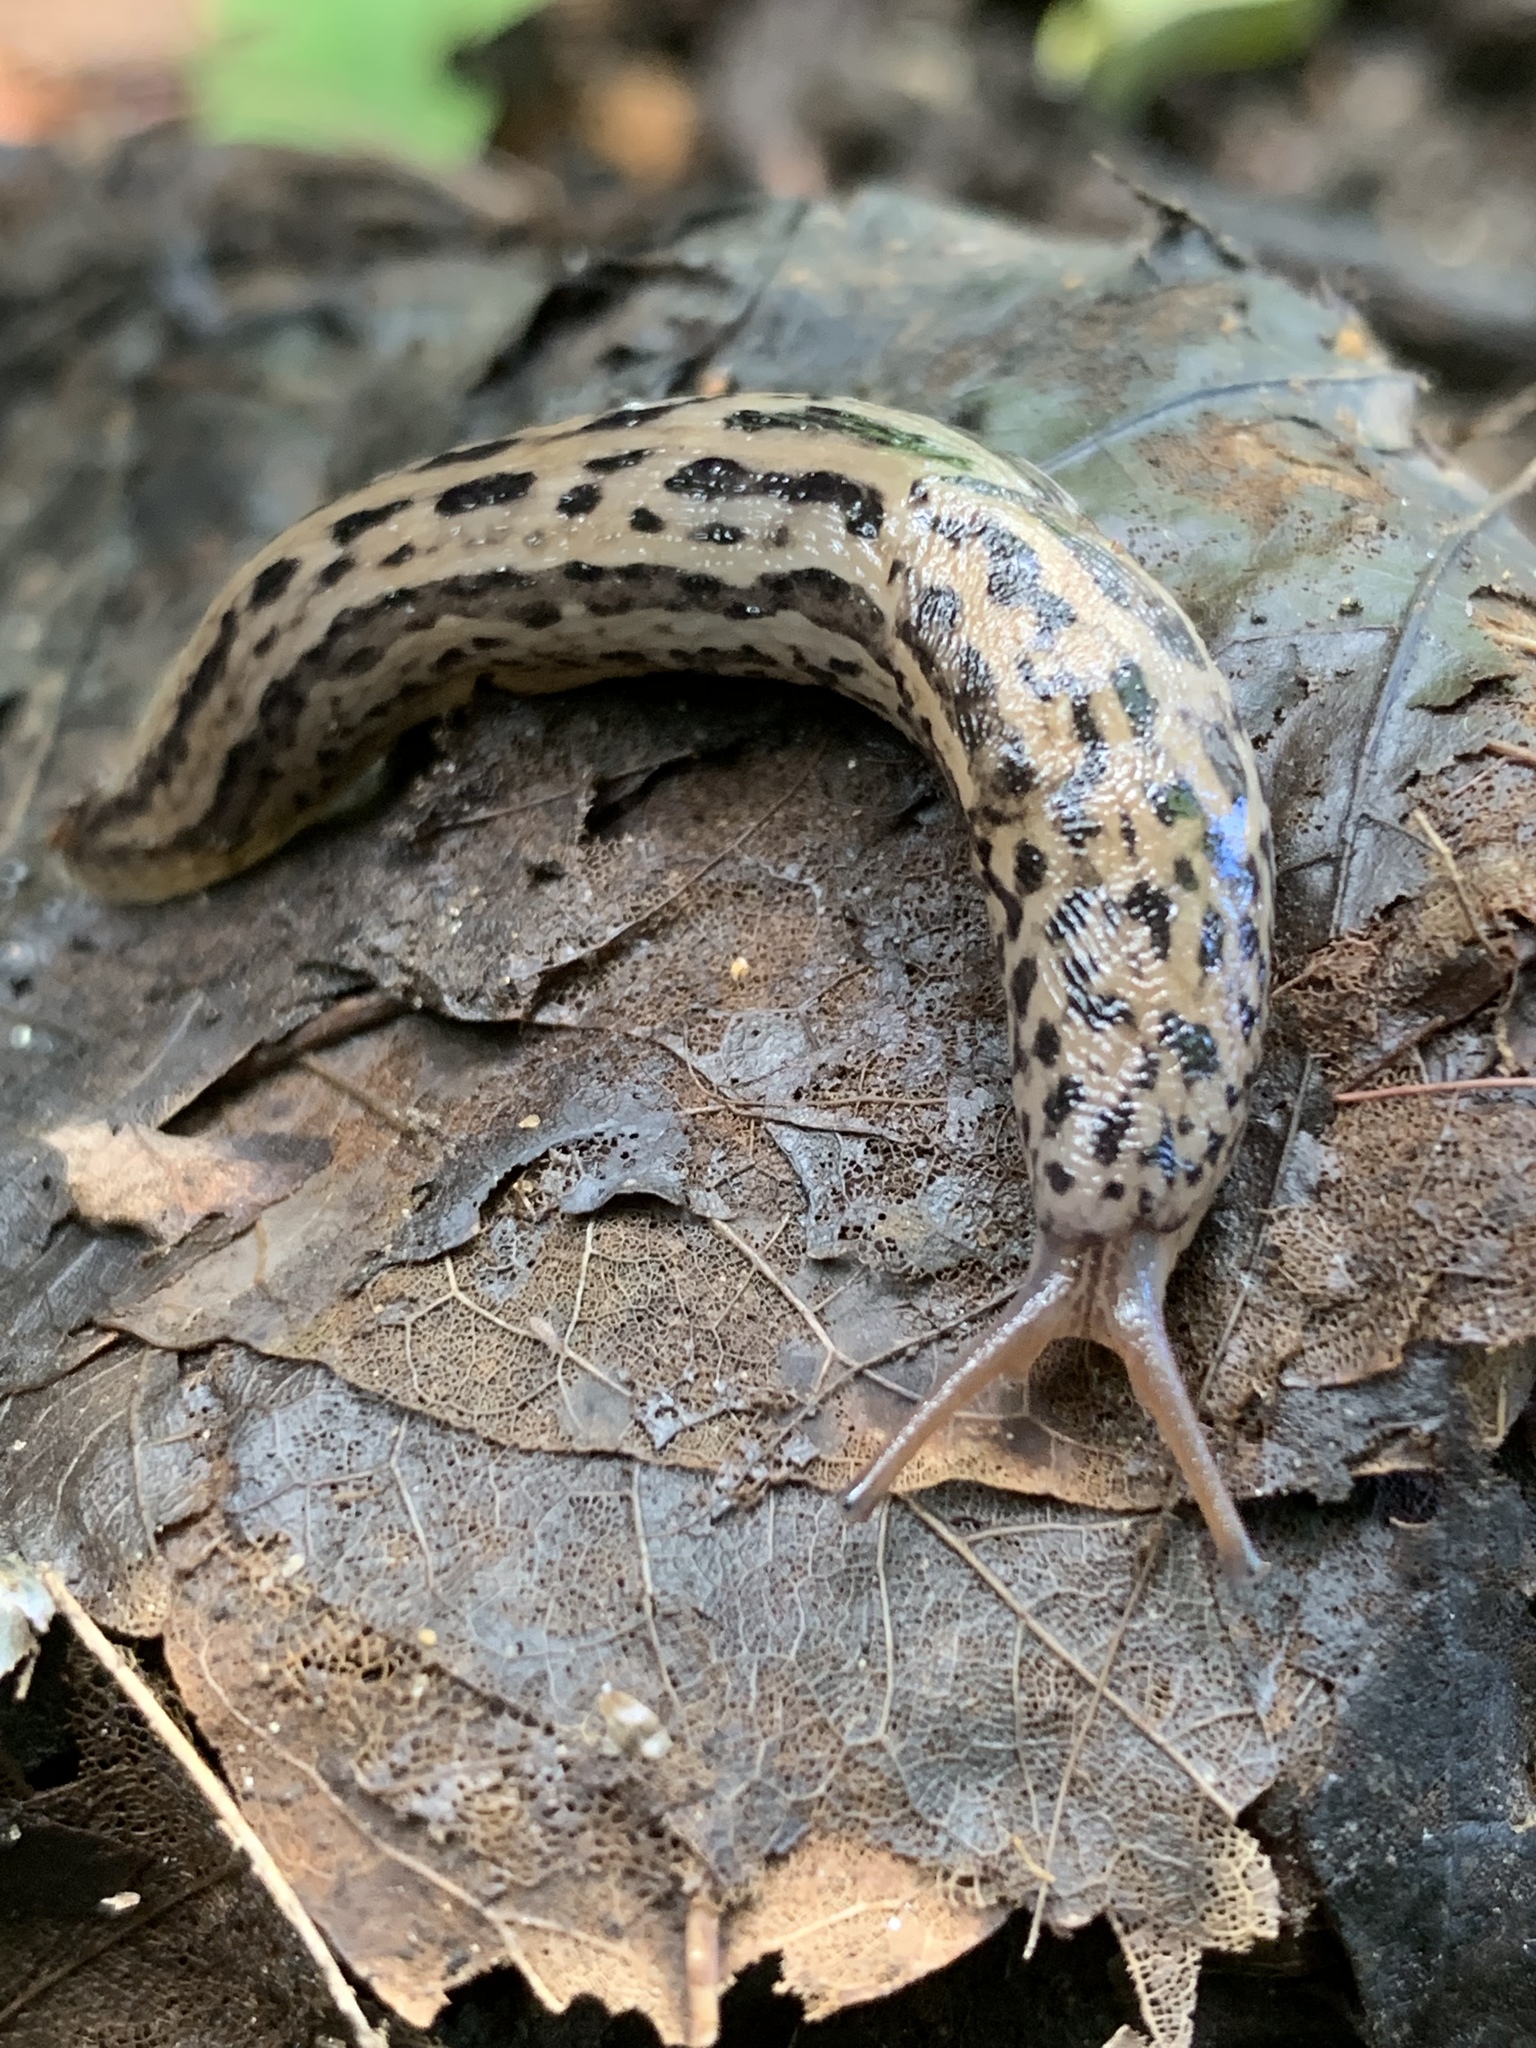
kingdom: Animalia
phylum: Mollusca
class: Gastropoda
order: Stylommatophora
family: Limacidae
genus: Limax
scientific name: Limax maximus
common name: Great grey slug
